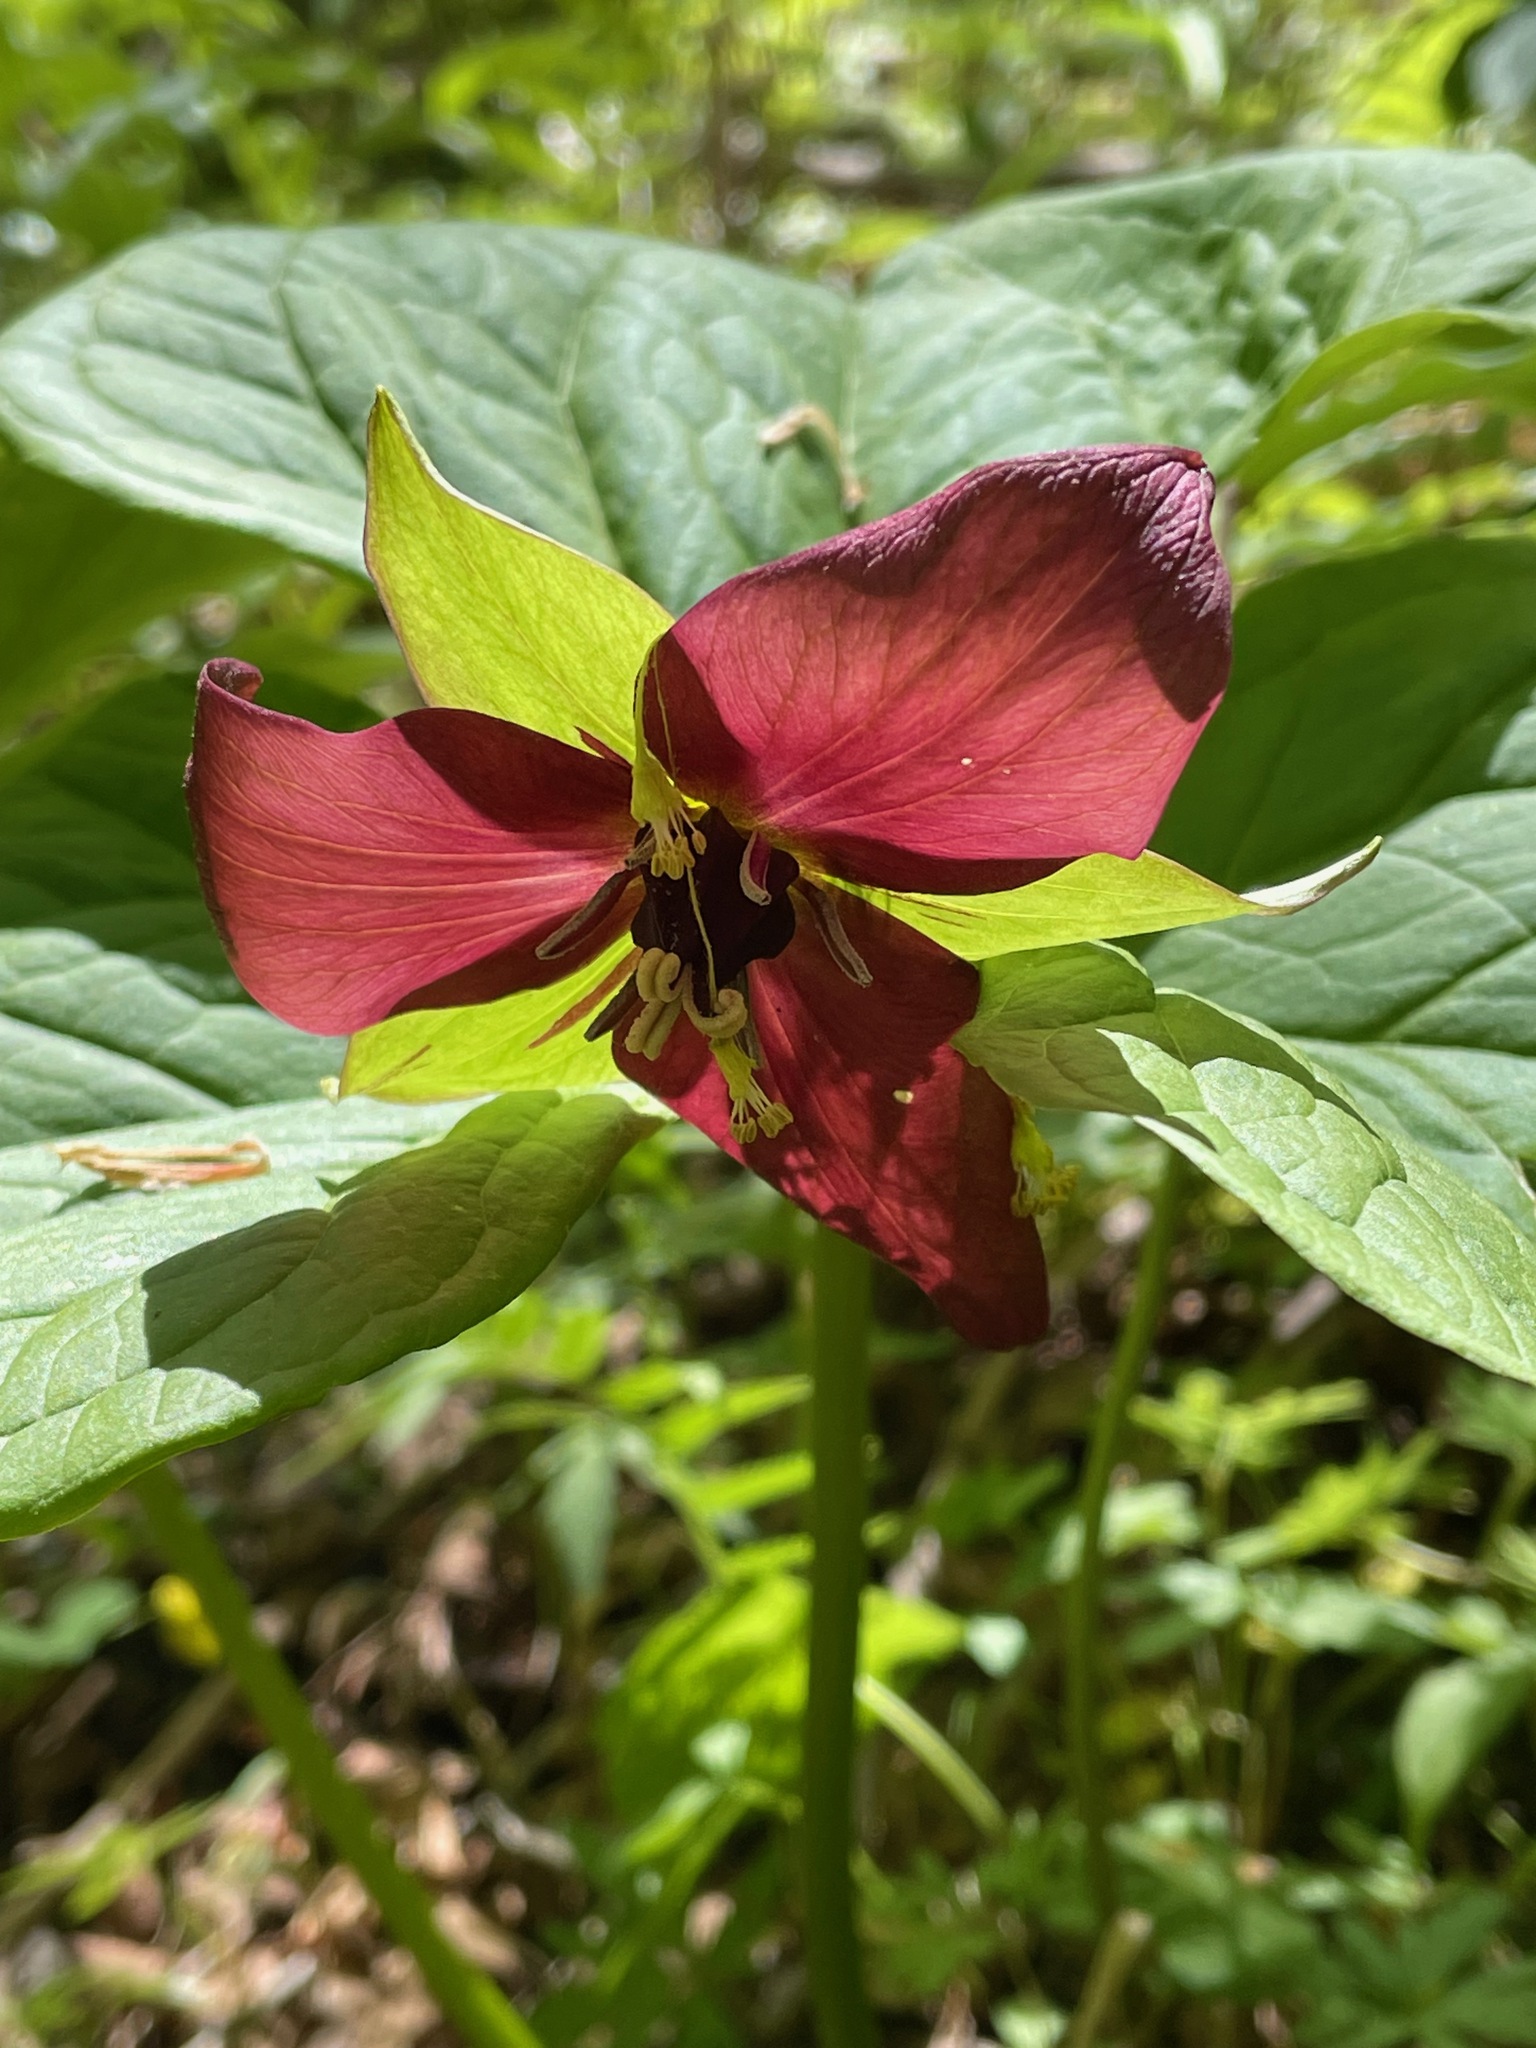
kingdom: Plantae
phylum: Tracheophyta
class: Liliopsida
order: Liliales
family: Melanthiaceae
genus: Trillium
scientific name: Trillium erectum
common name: Purple trillium
